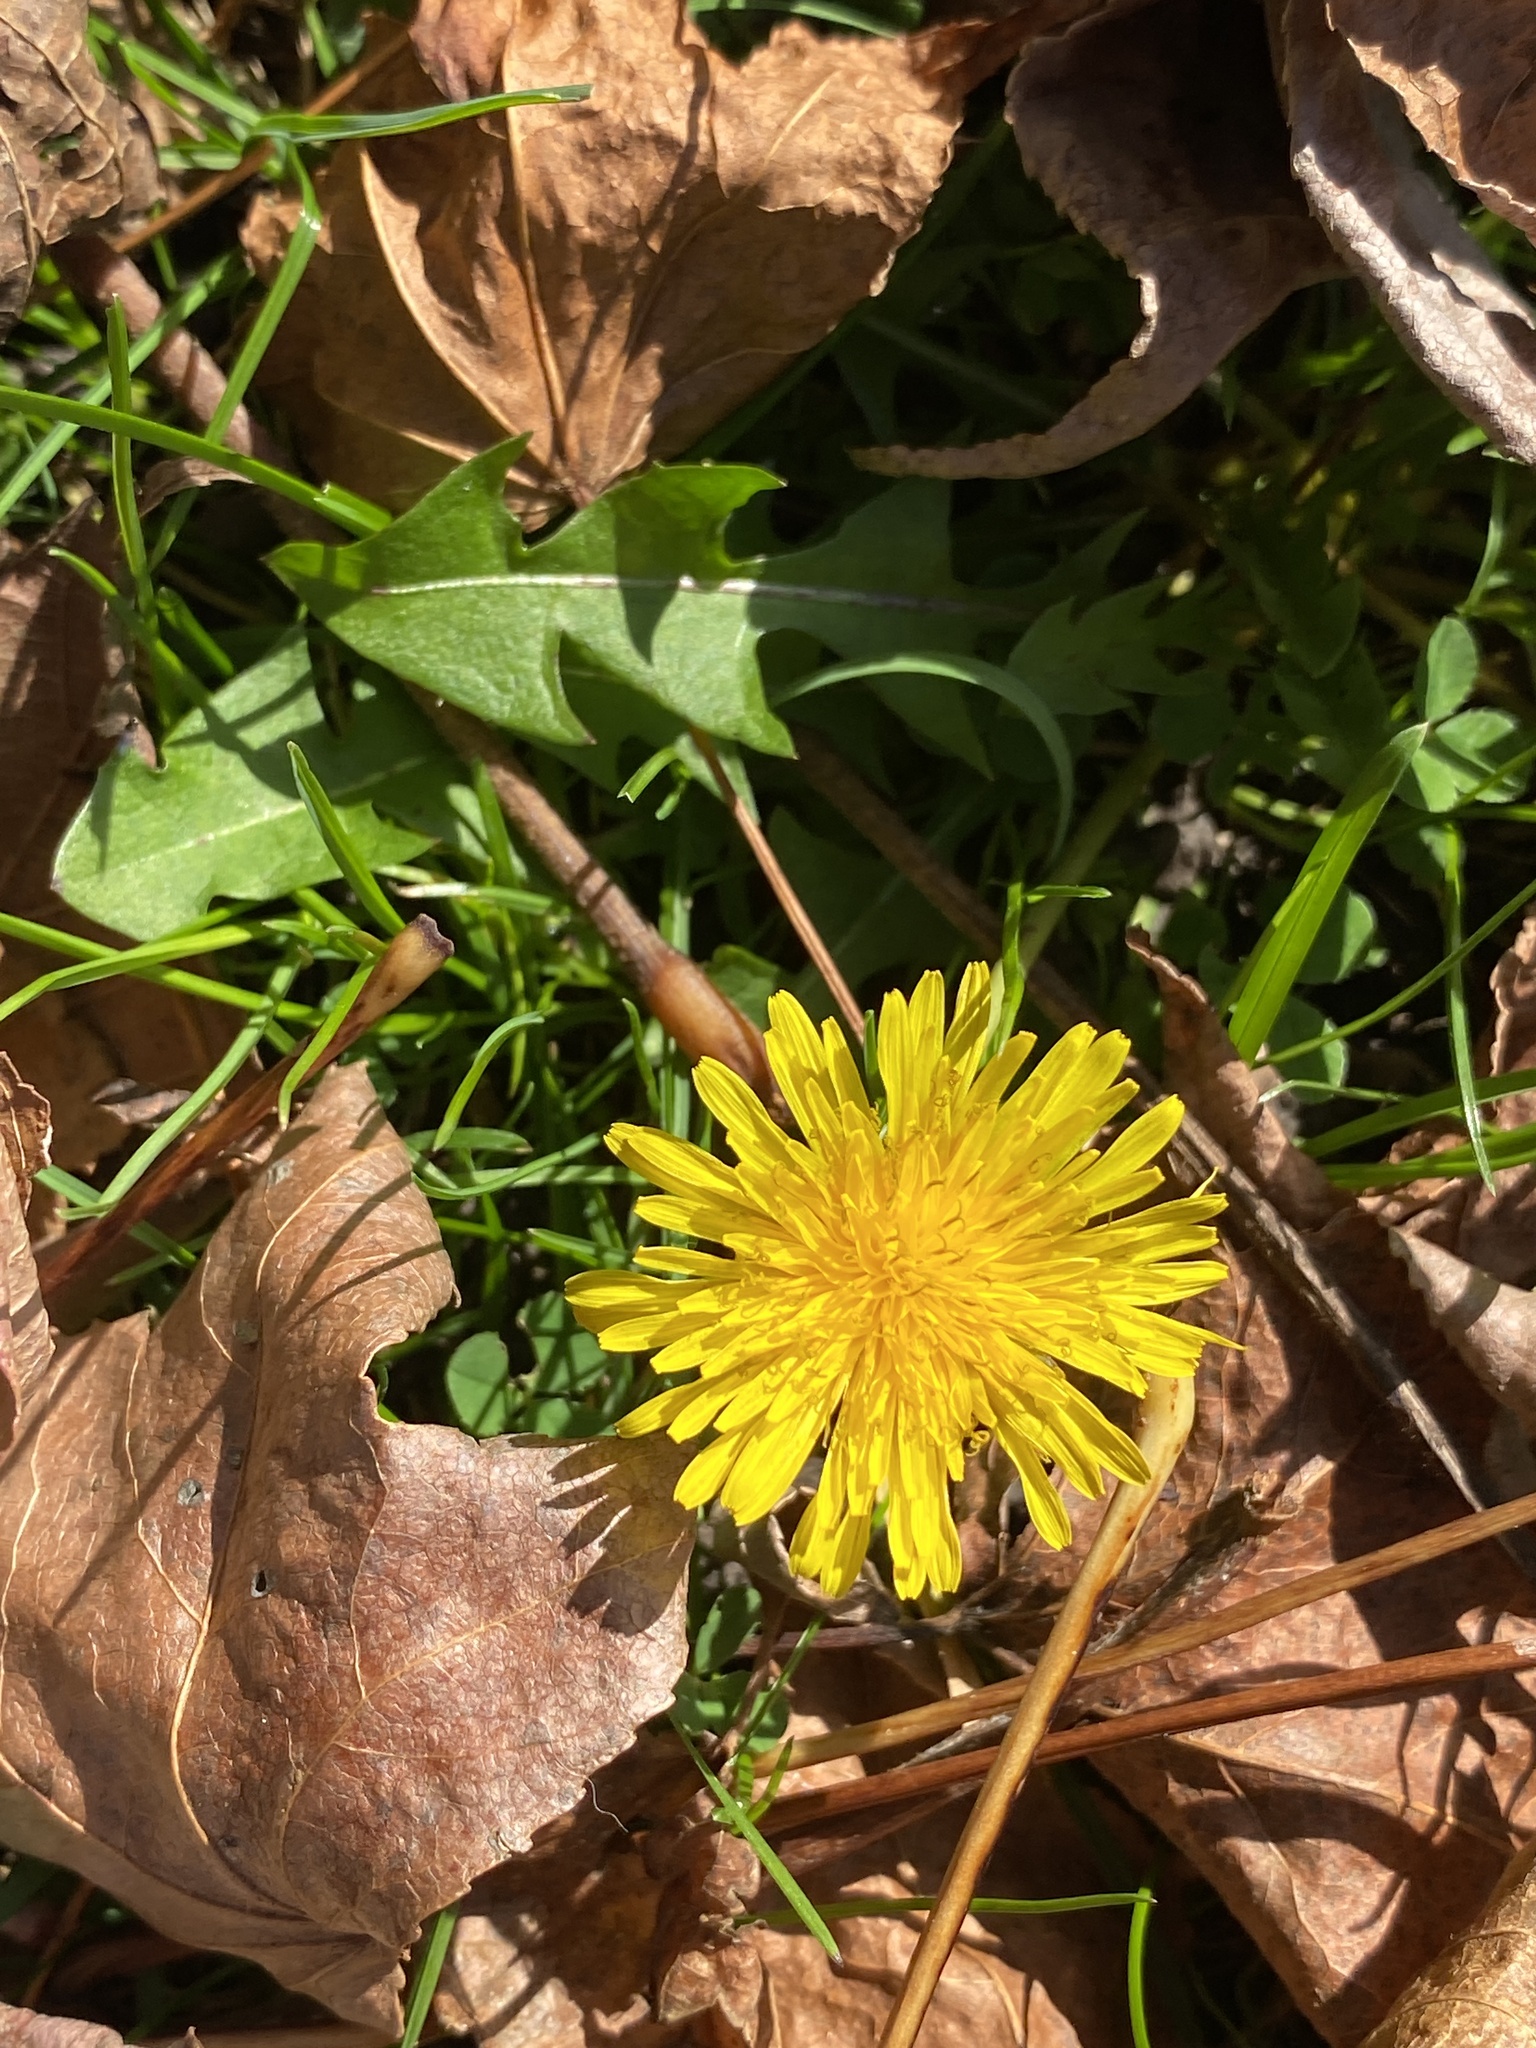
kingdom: Plantae
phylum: Tracheophyta
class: Magnoliopsida
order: Asterales
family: Asteraceae
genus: Taraxacum
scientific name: Taraxacum
